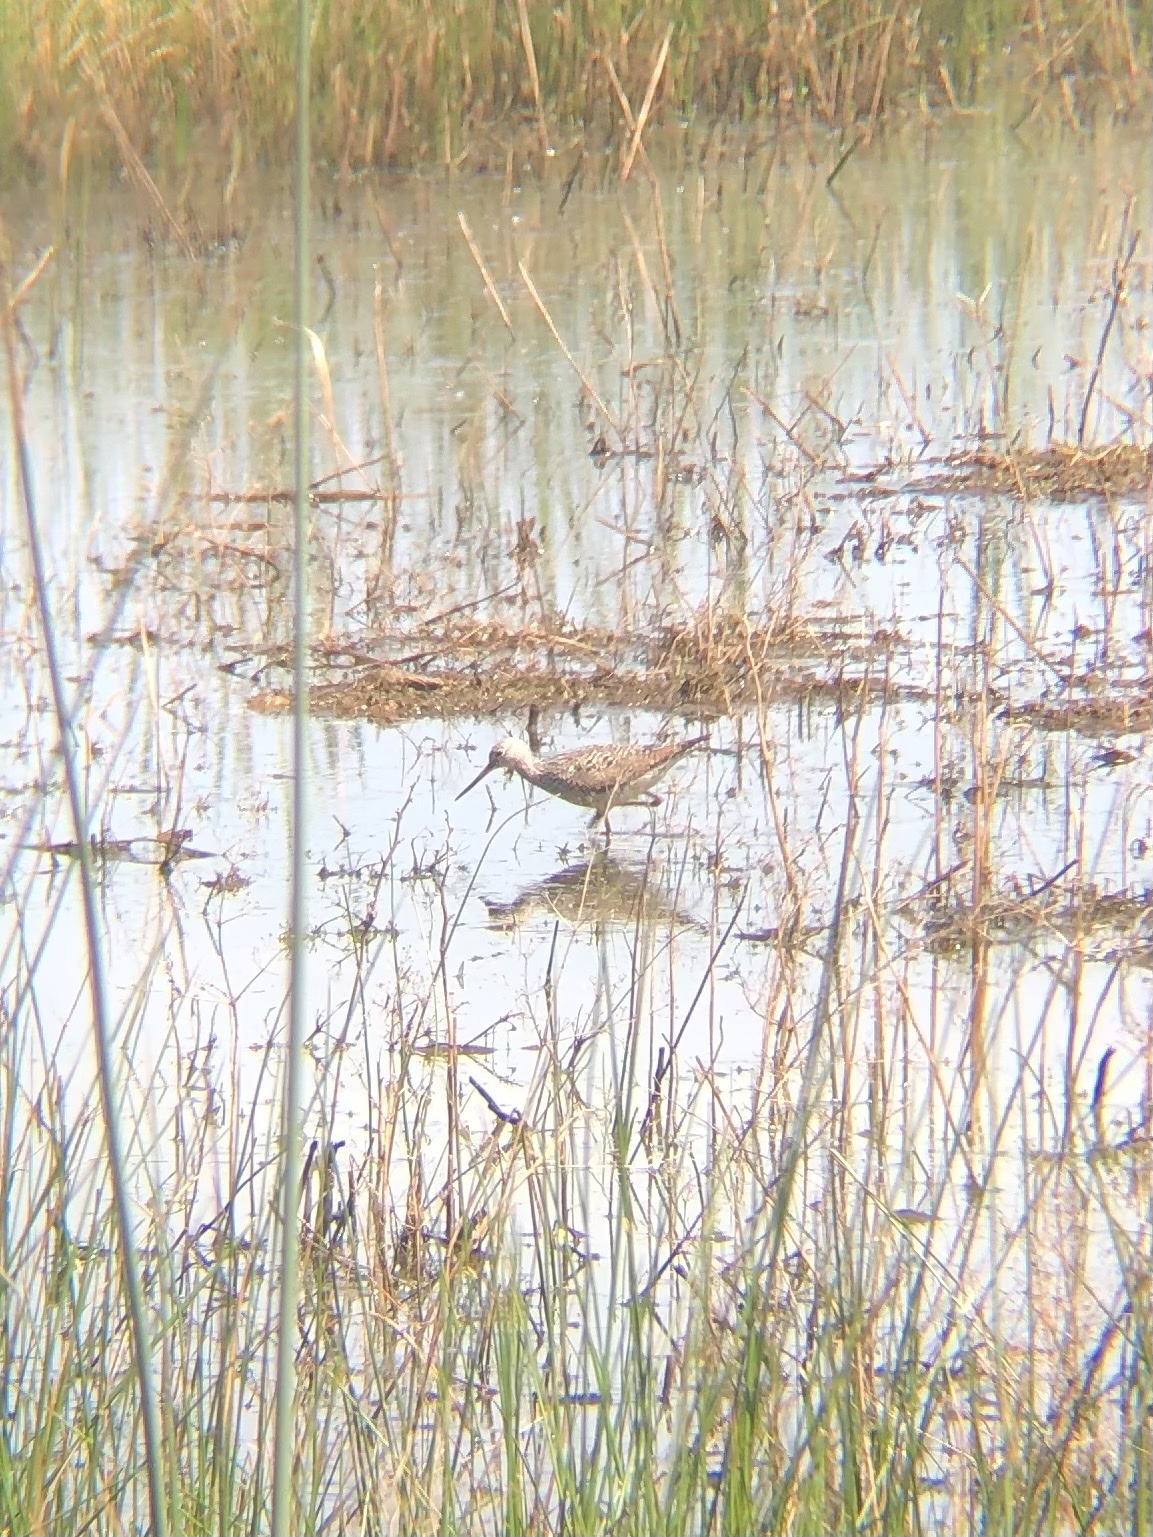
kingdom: Animalia
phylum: Chordata
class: Aves
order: Charadriiformes
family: Scolopacidae
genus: Tringa
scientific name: Tringa melanoleuca
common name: Greater yellowlegs
